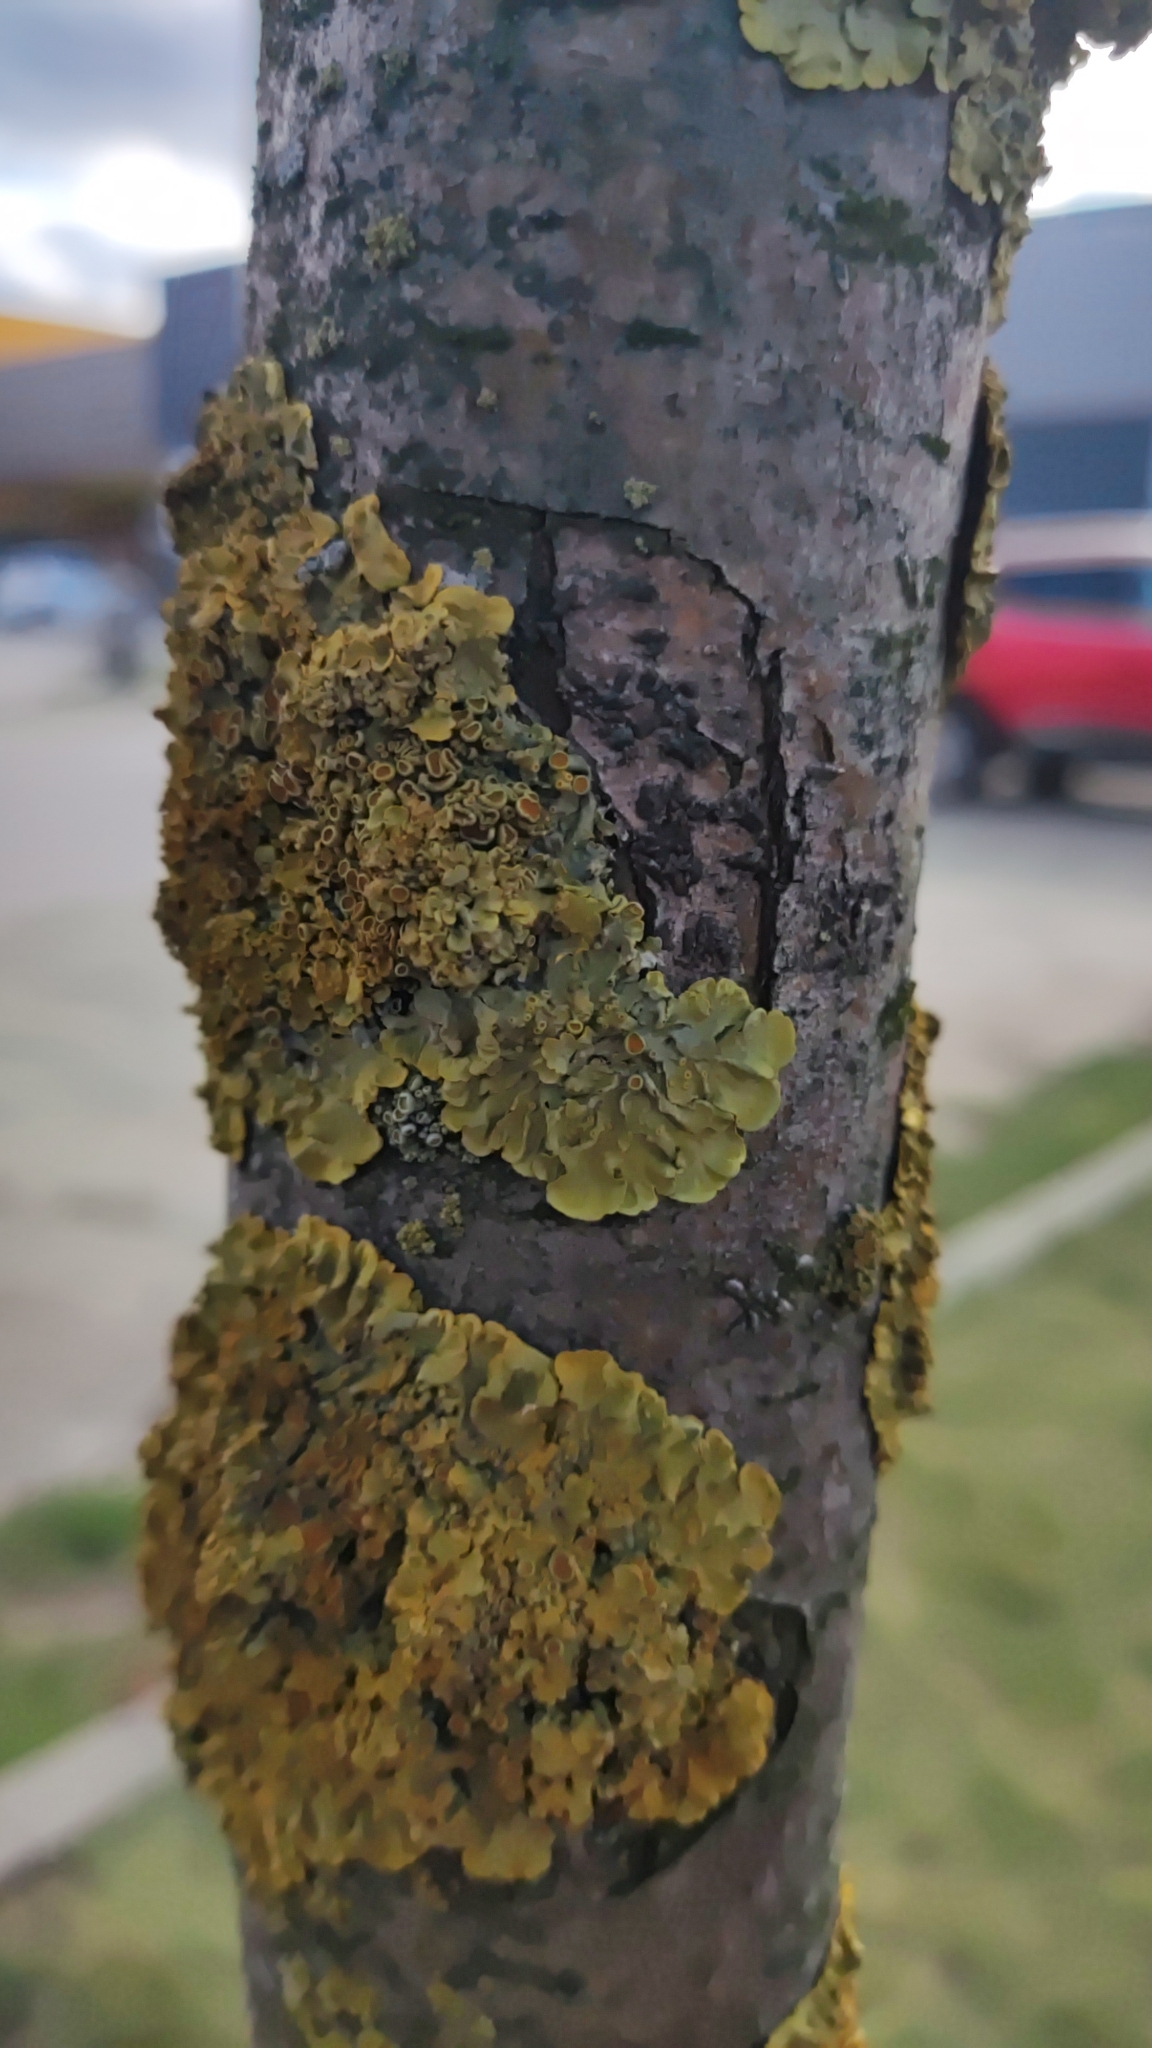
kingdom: Fungi
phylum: Ascomycota
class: Lecanoromycetes
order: Teloschistales
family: Teloschistaceae
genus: Xanthoria
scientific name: Xanthoria parietina
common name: Common orange lichen
